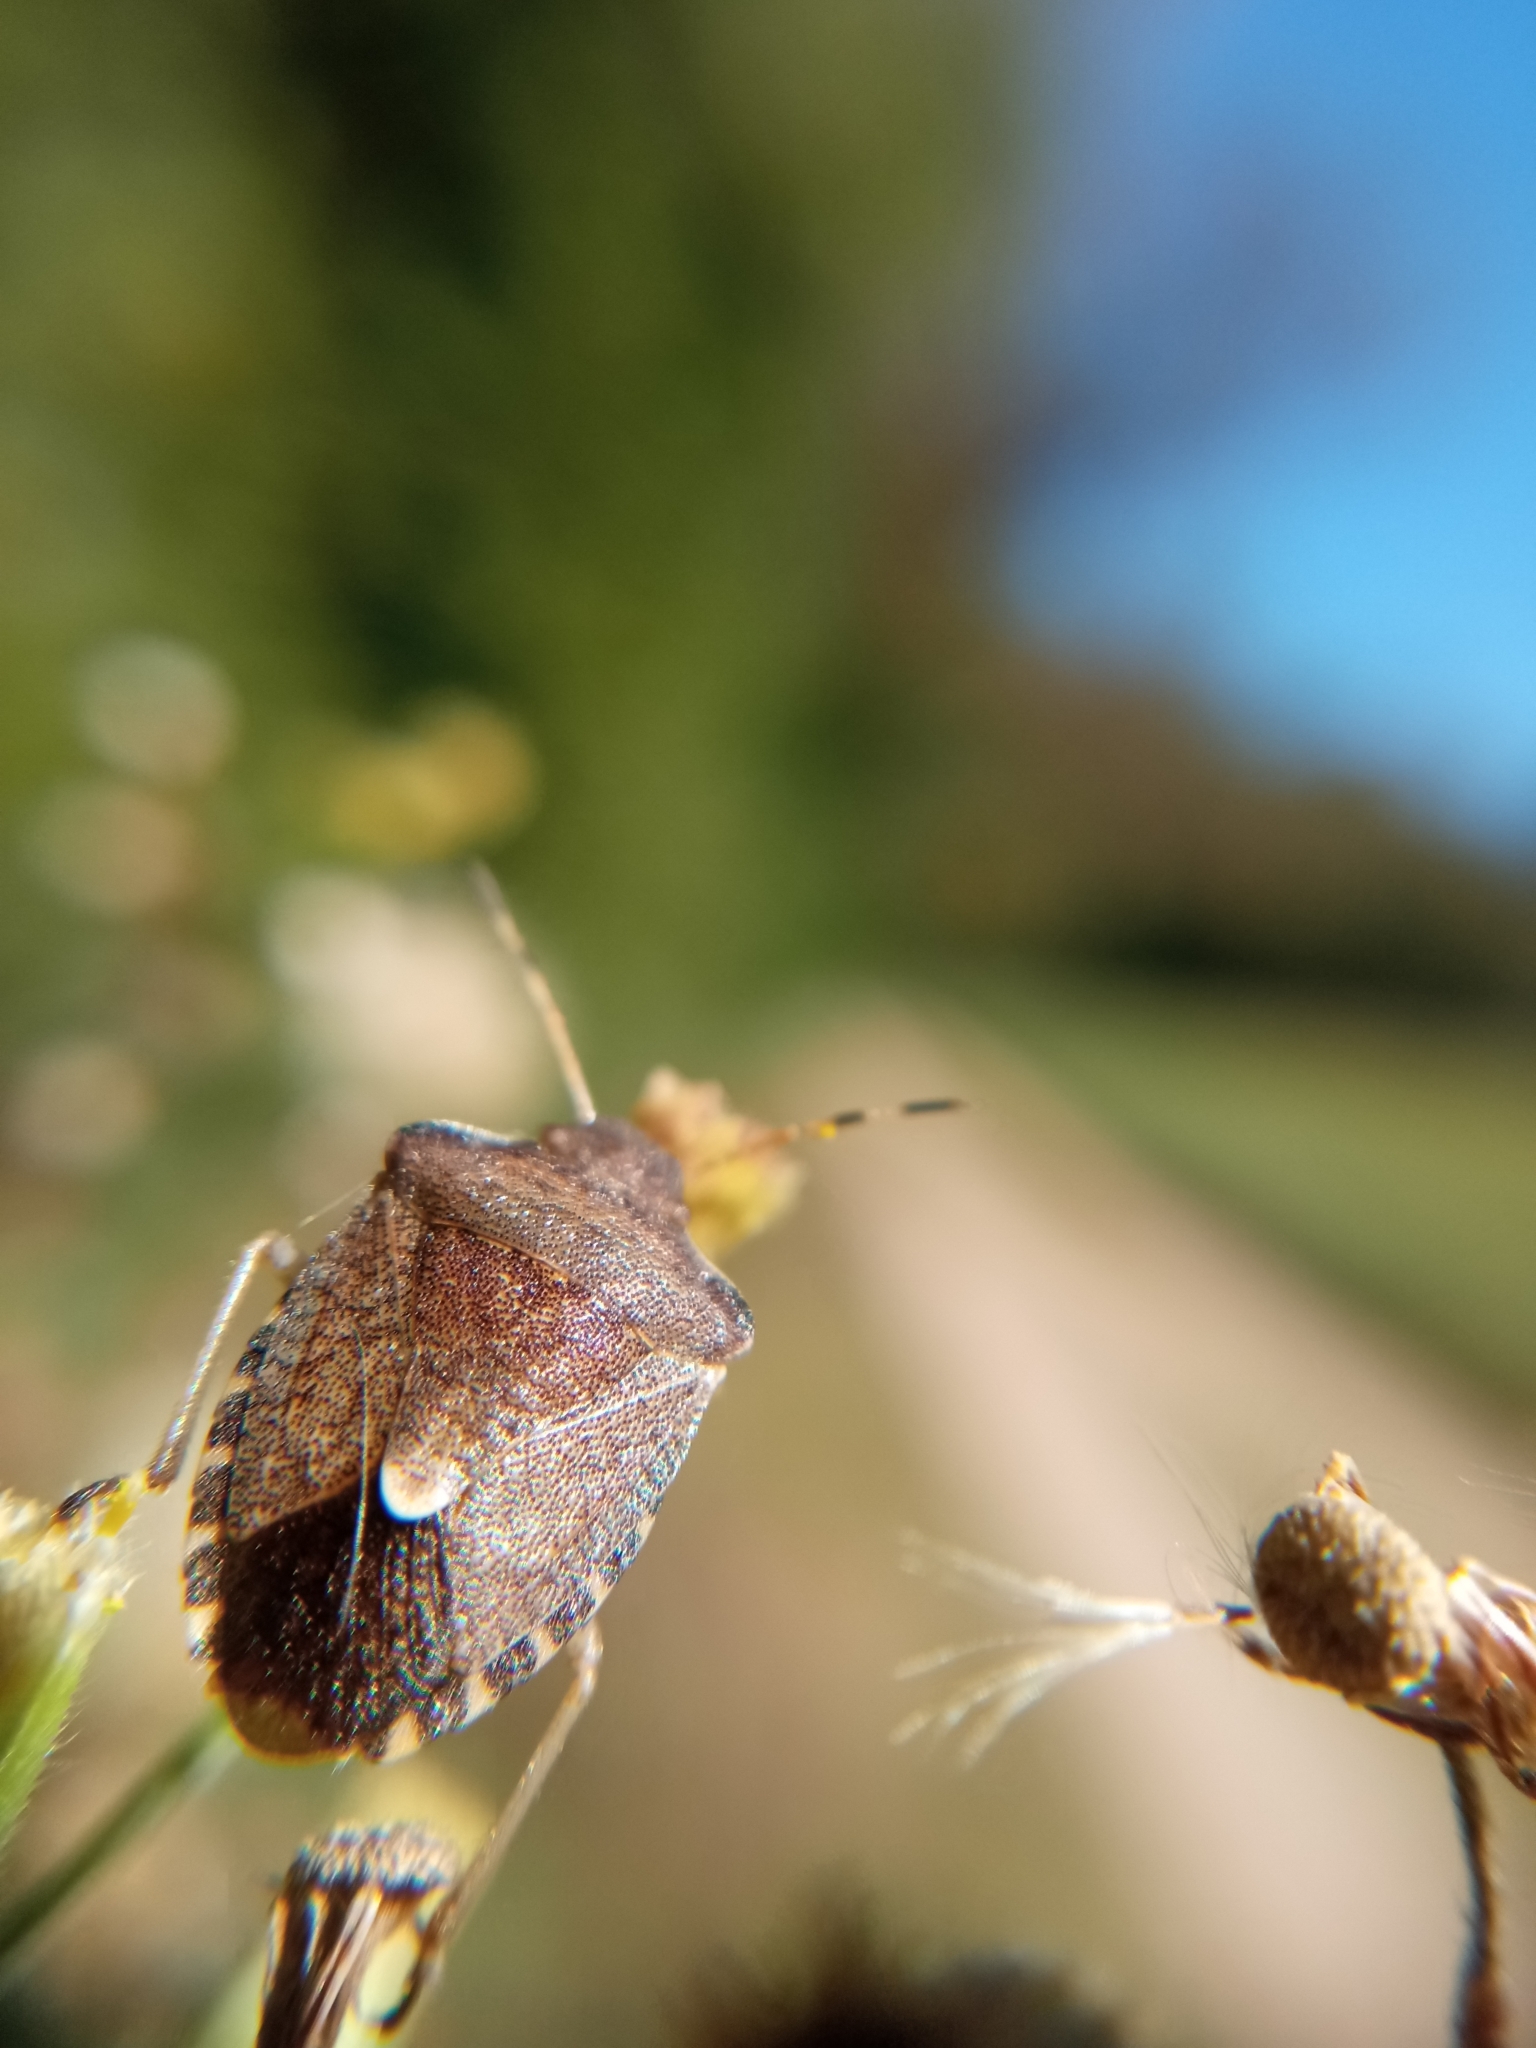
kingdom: Animalia
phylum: Arthropoda
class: Insecta
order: Hemiptera
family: Pentatomidae
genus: Holcostethus
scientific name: Holcostethus strictus
